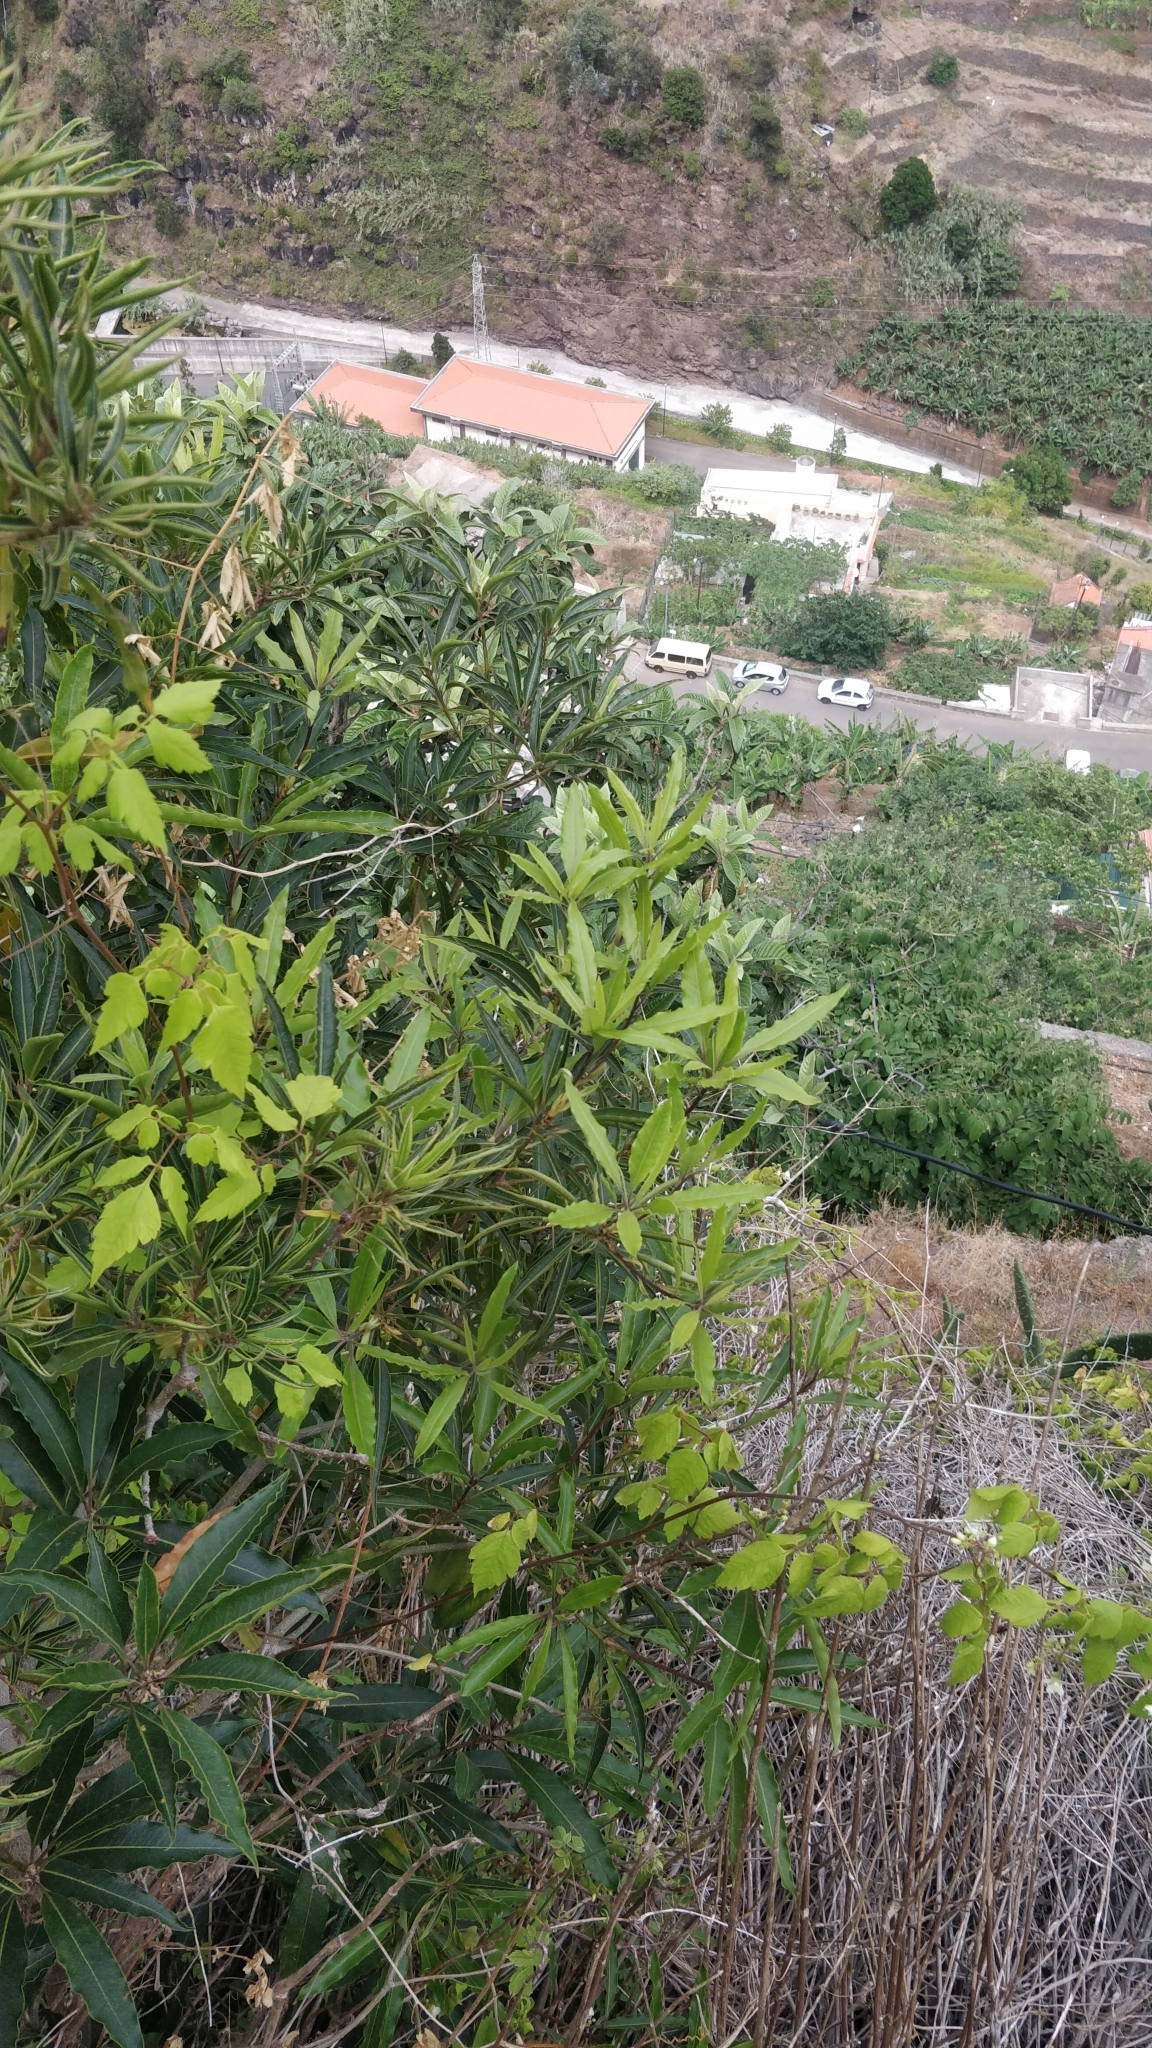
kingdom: Plantae
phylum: Tracheophyta
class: Magnoliopsida
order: Apiales
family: Pittosporaceae
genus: Pittosporum
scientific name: Pittosporum undulatum
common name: Australian cheesewood
